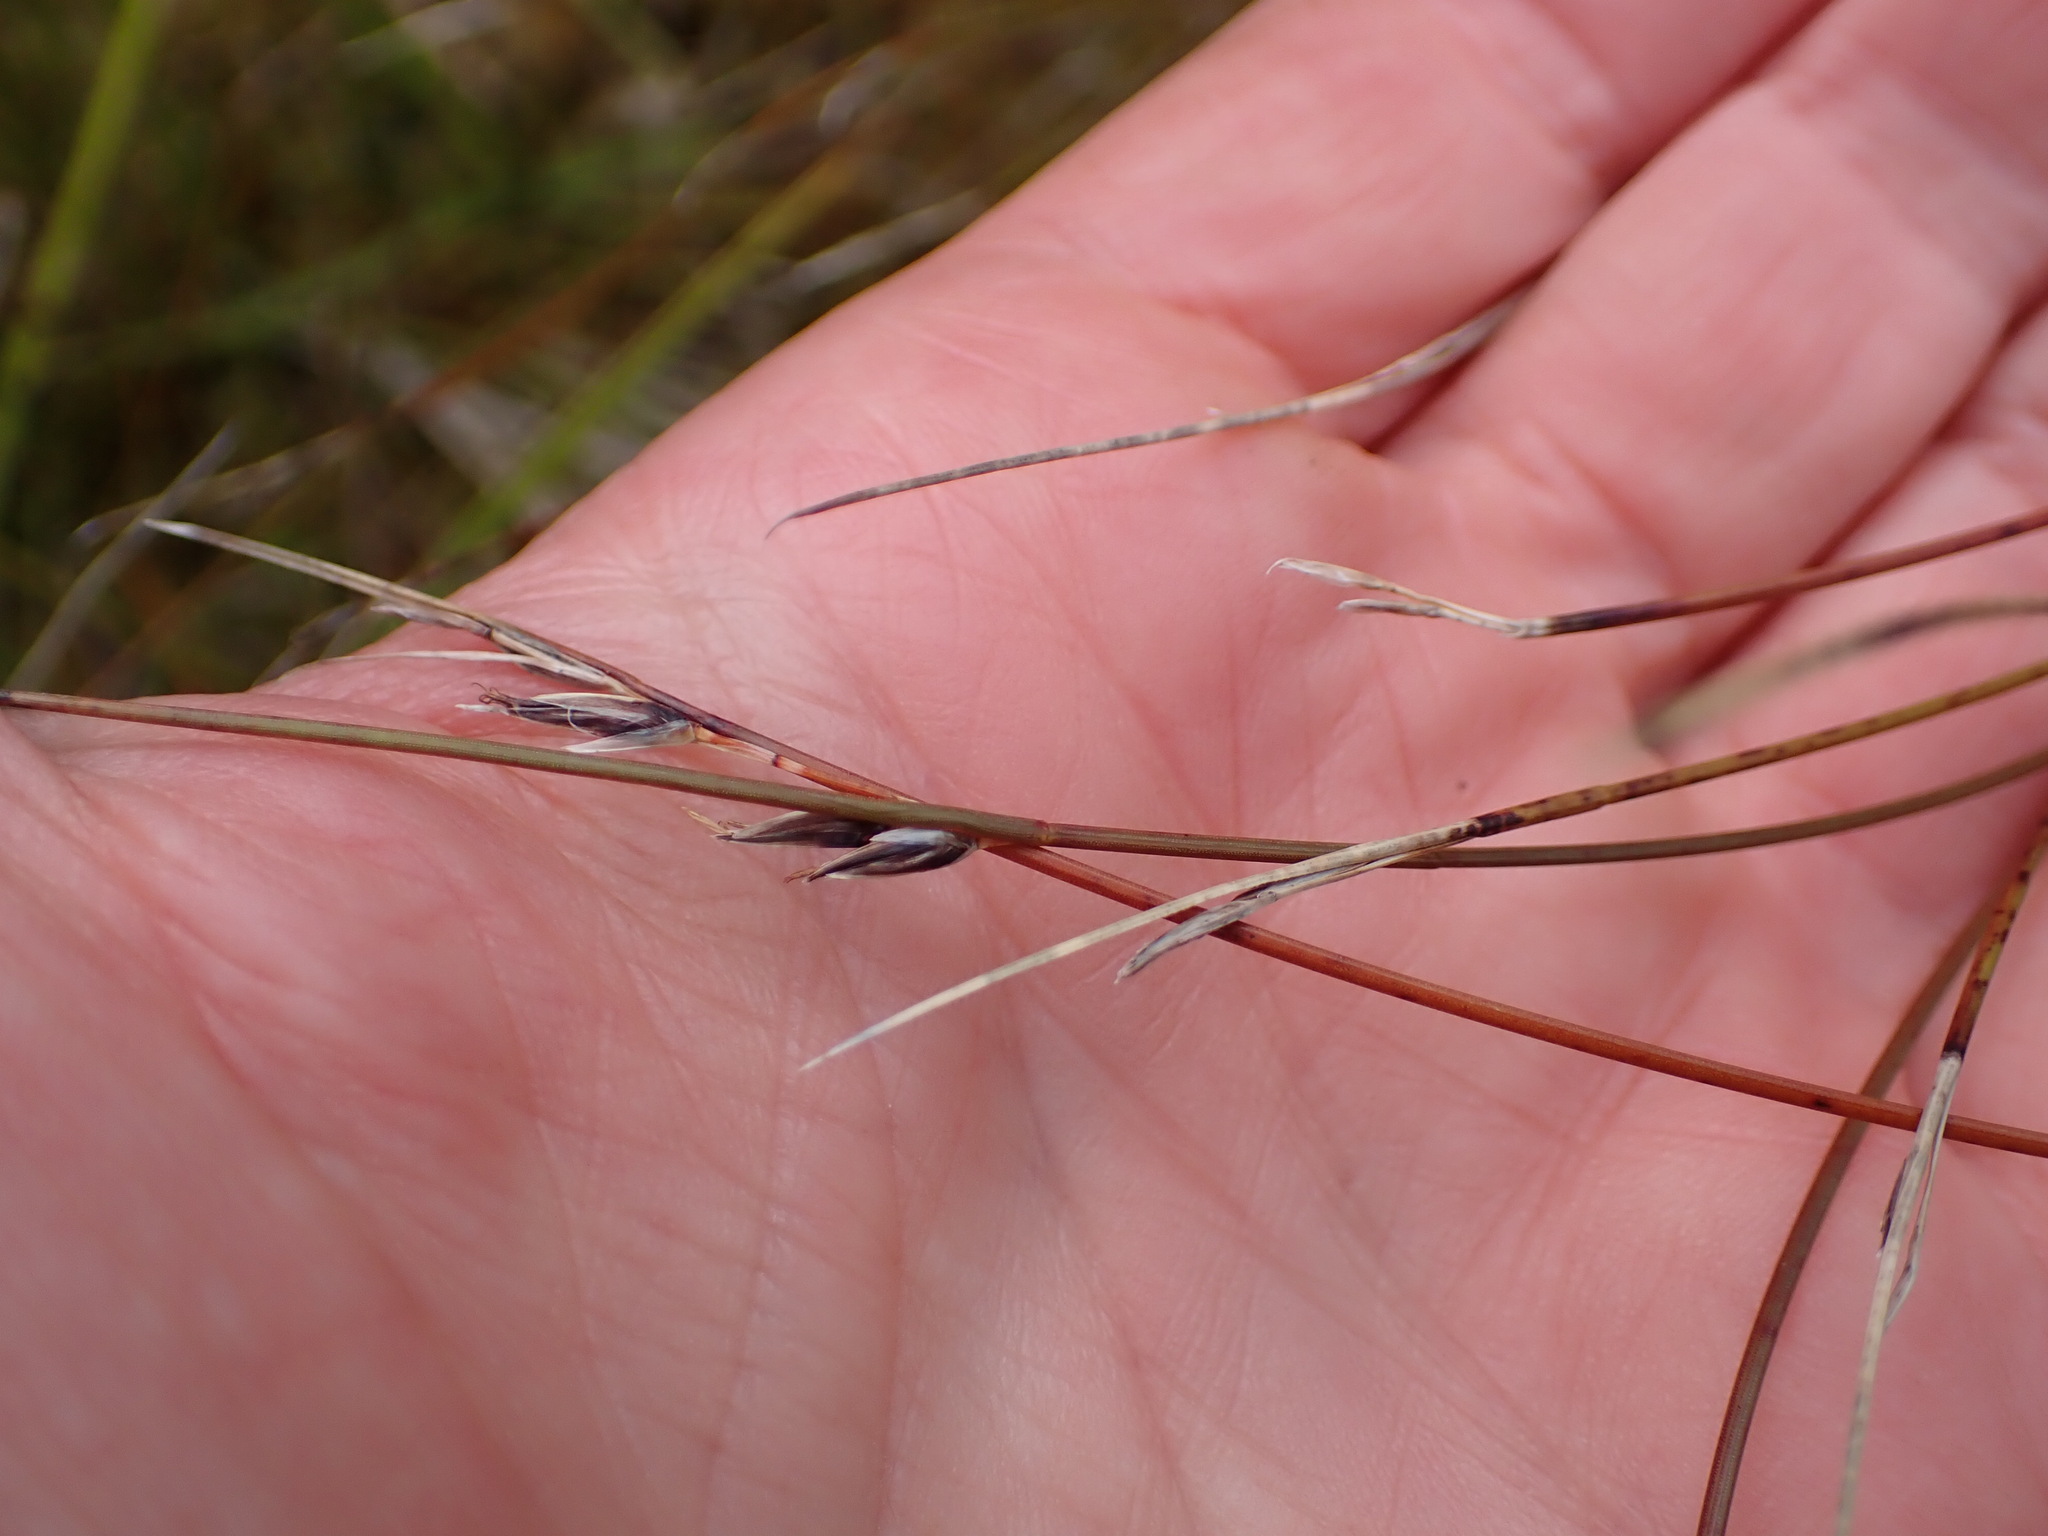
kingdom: Plantae
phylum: Tracheophyta
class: Liliopsida
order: Poales
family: Cyperaceae
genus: Schoenus
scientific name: Schoenus pauciflorus
